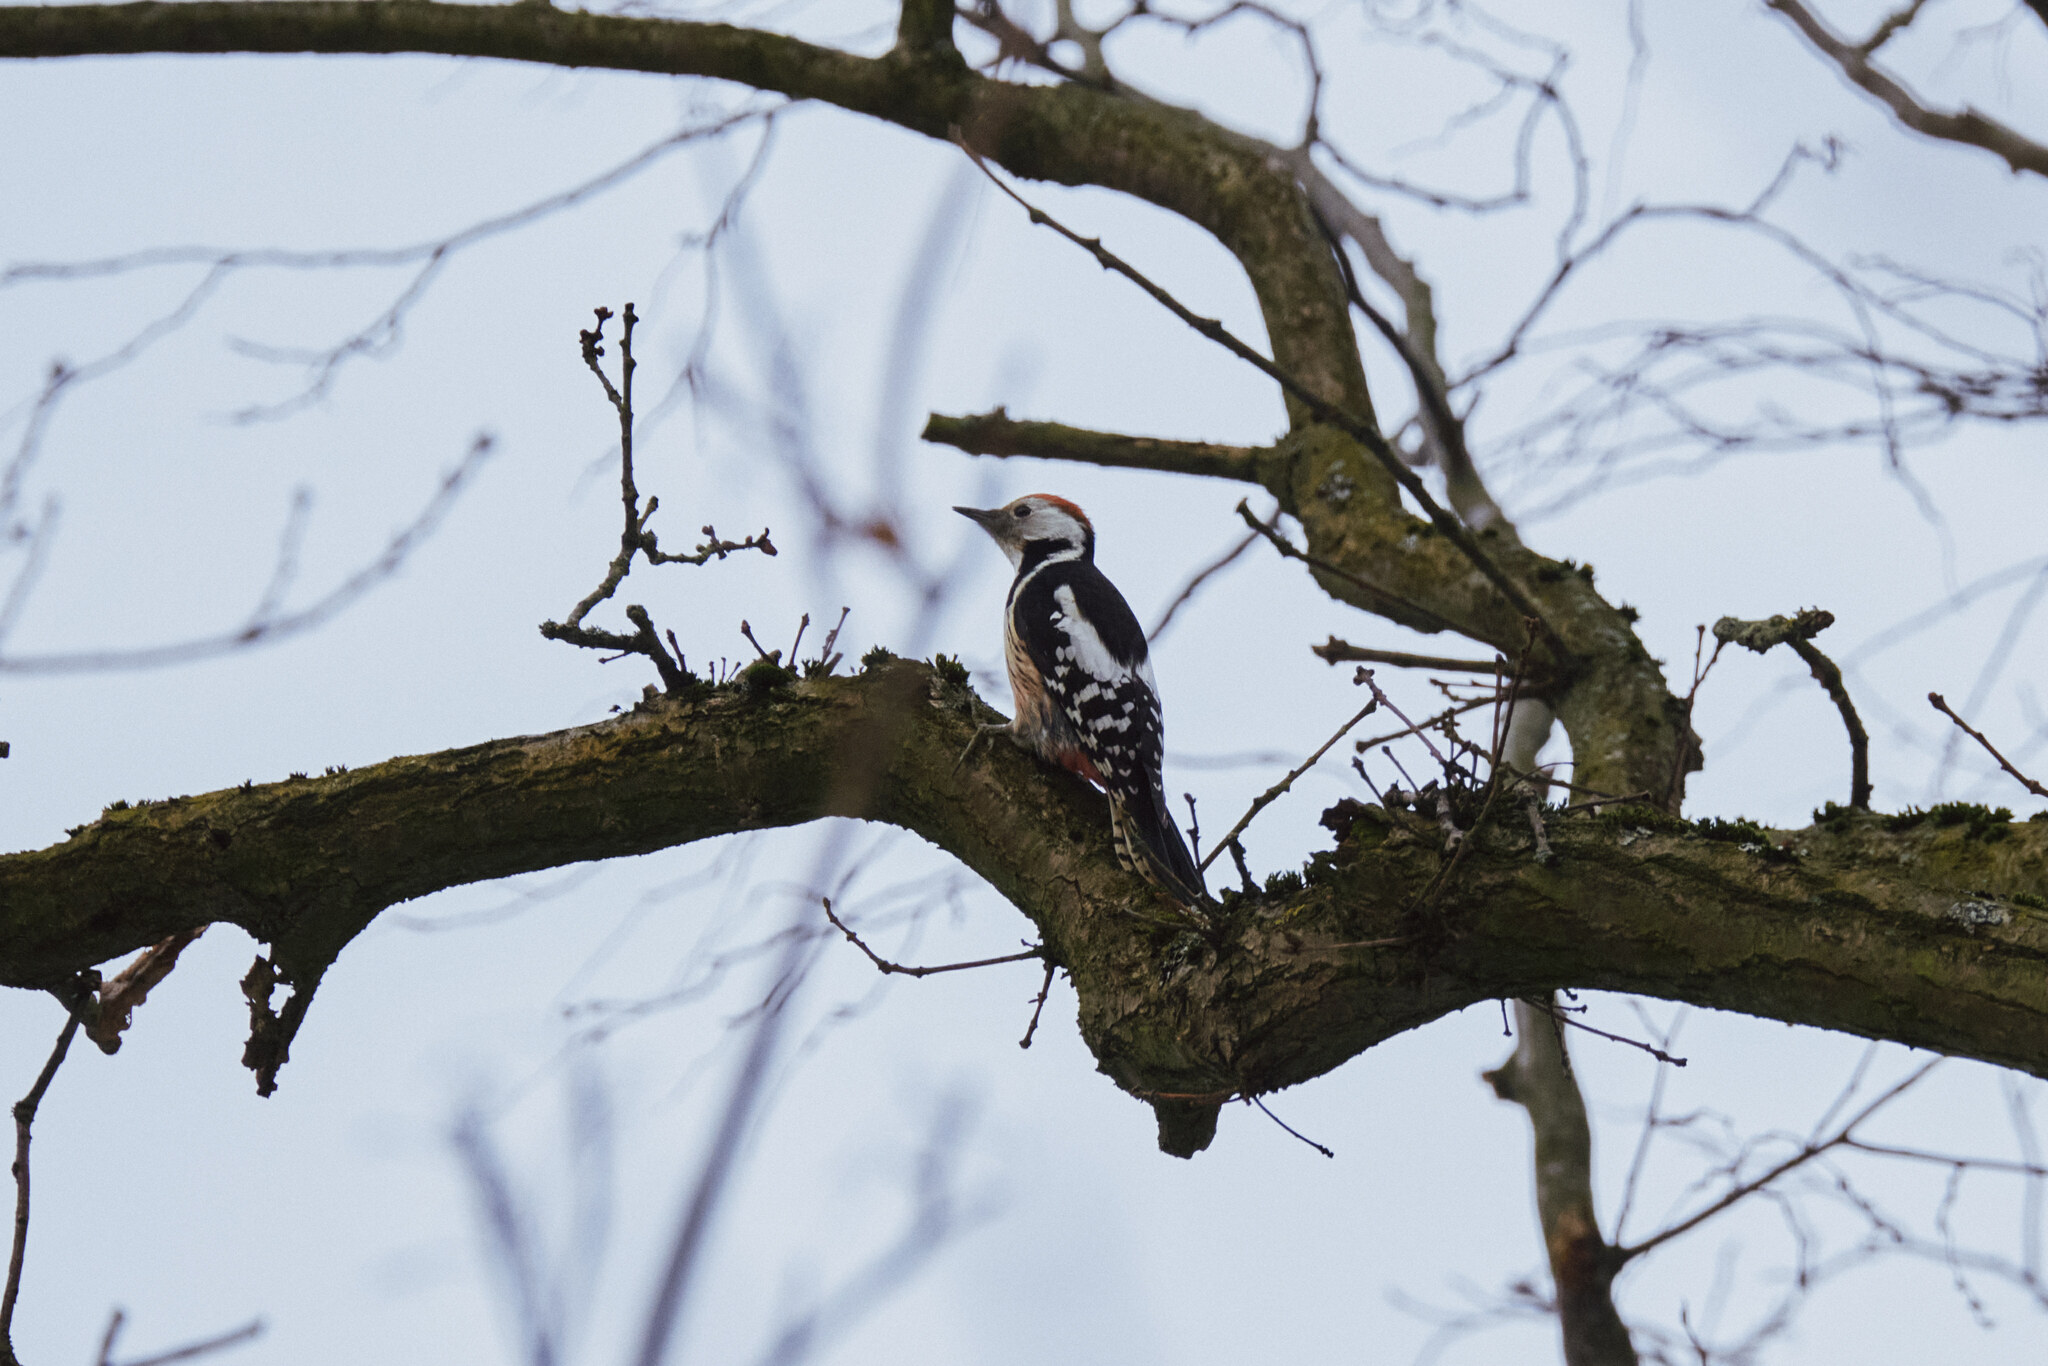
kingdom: Animalia
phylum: Chordata
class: Aves
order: Piciformes
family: Picidae
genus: Dendrocoptes
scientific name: Dendrocoptes medius
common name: Middle spotted woodpecker
